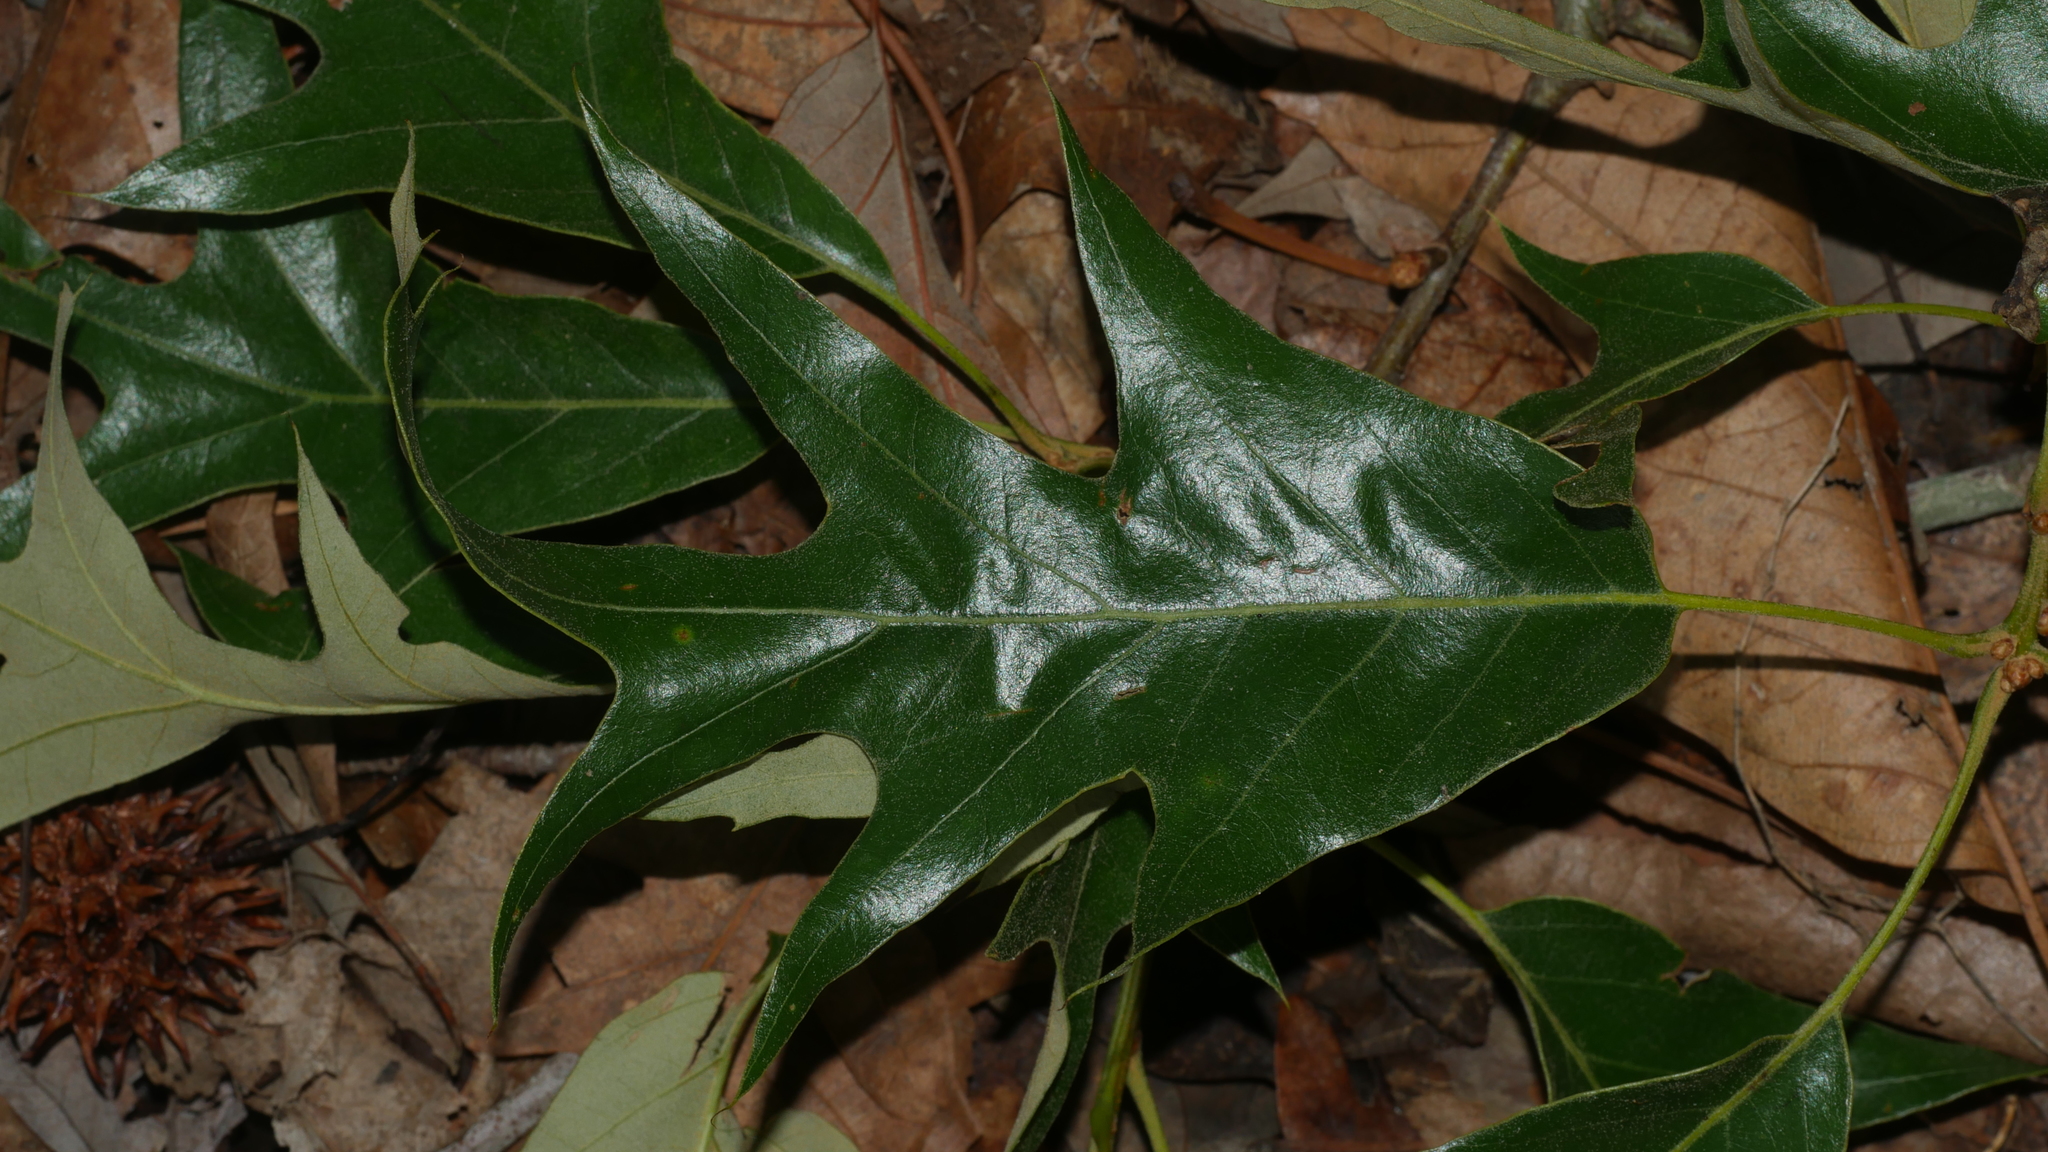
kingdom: Plantae
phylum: Tracheophyta
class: Magnoliopsida
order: Fagales
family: Fagaceae
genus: Quercus
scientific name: Quercus falcata
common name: Southern red oak
